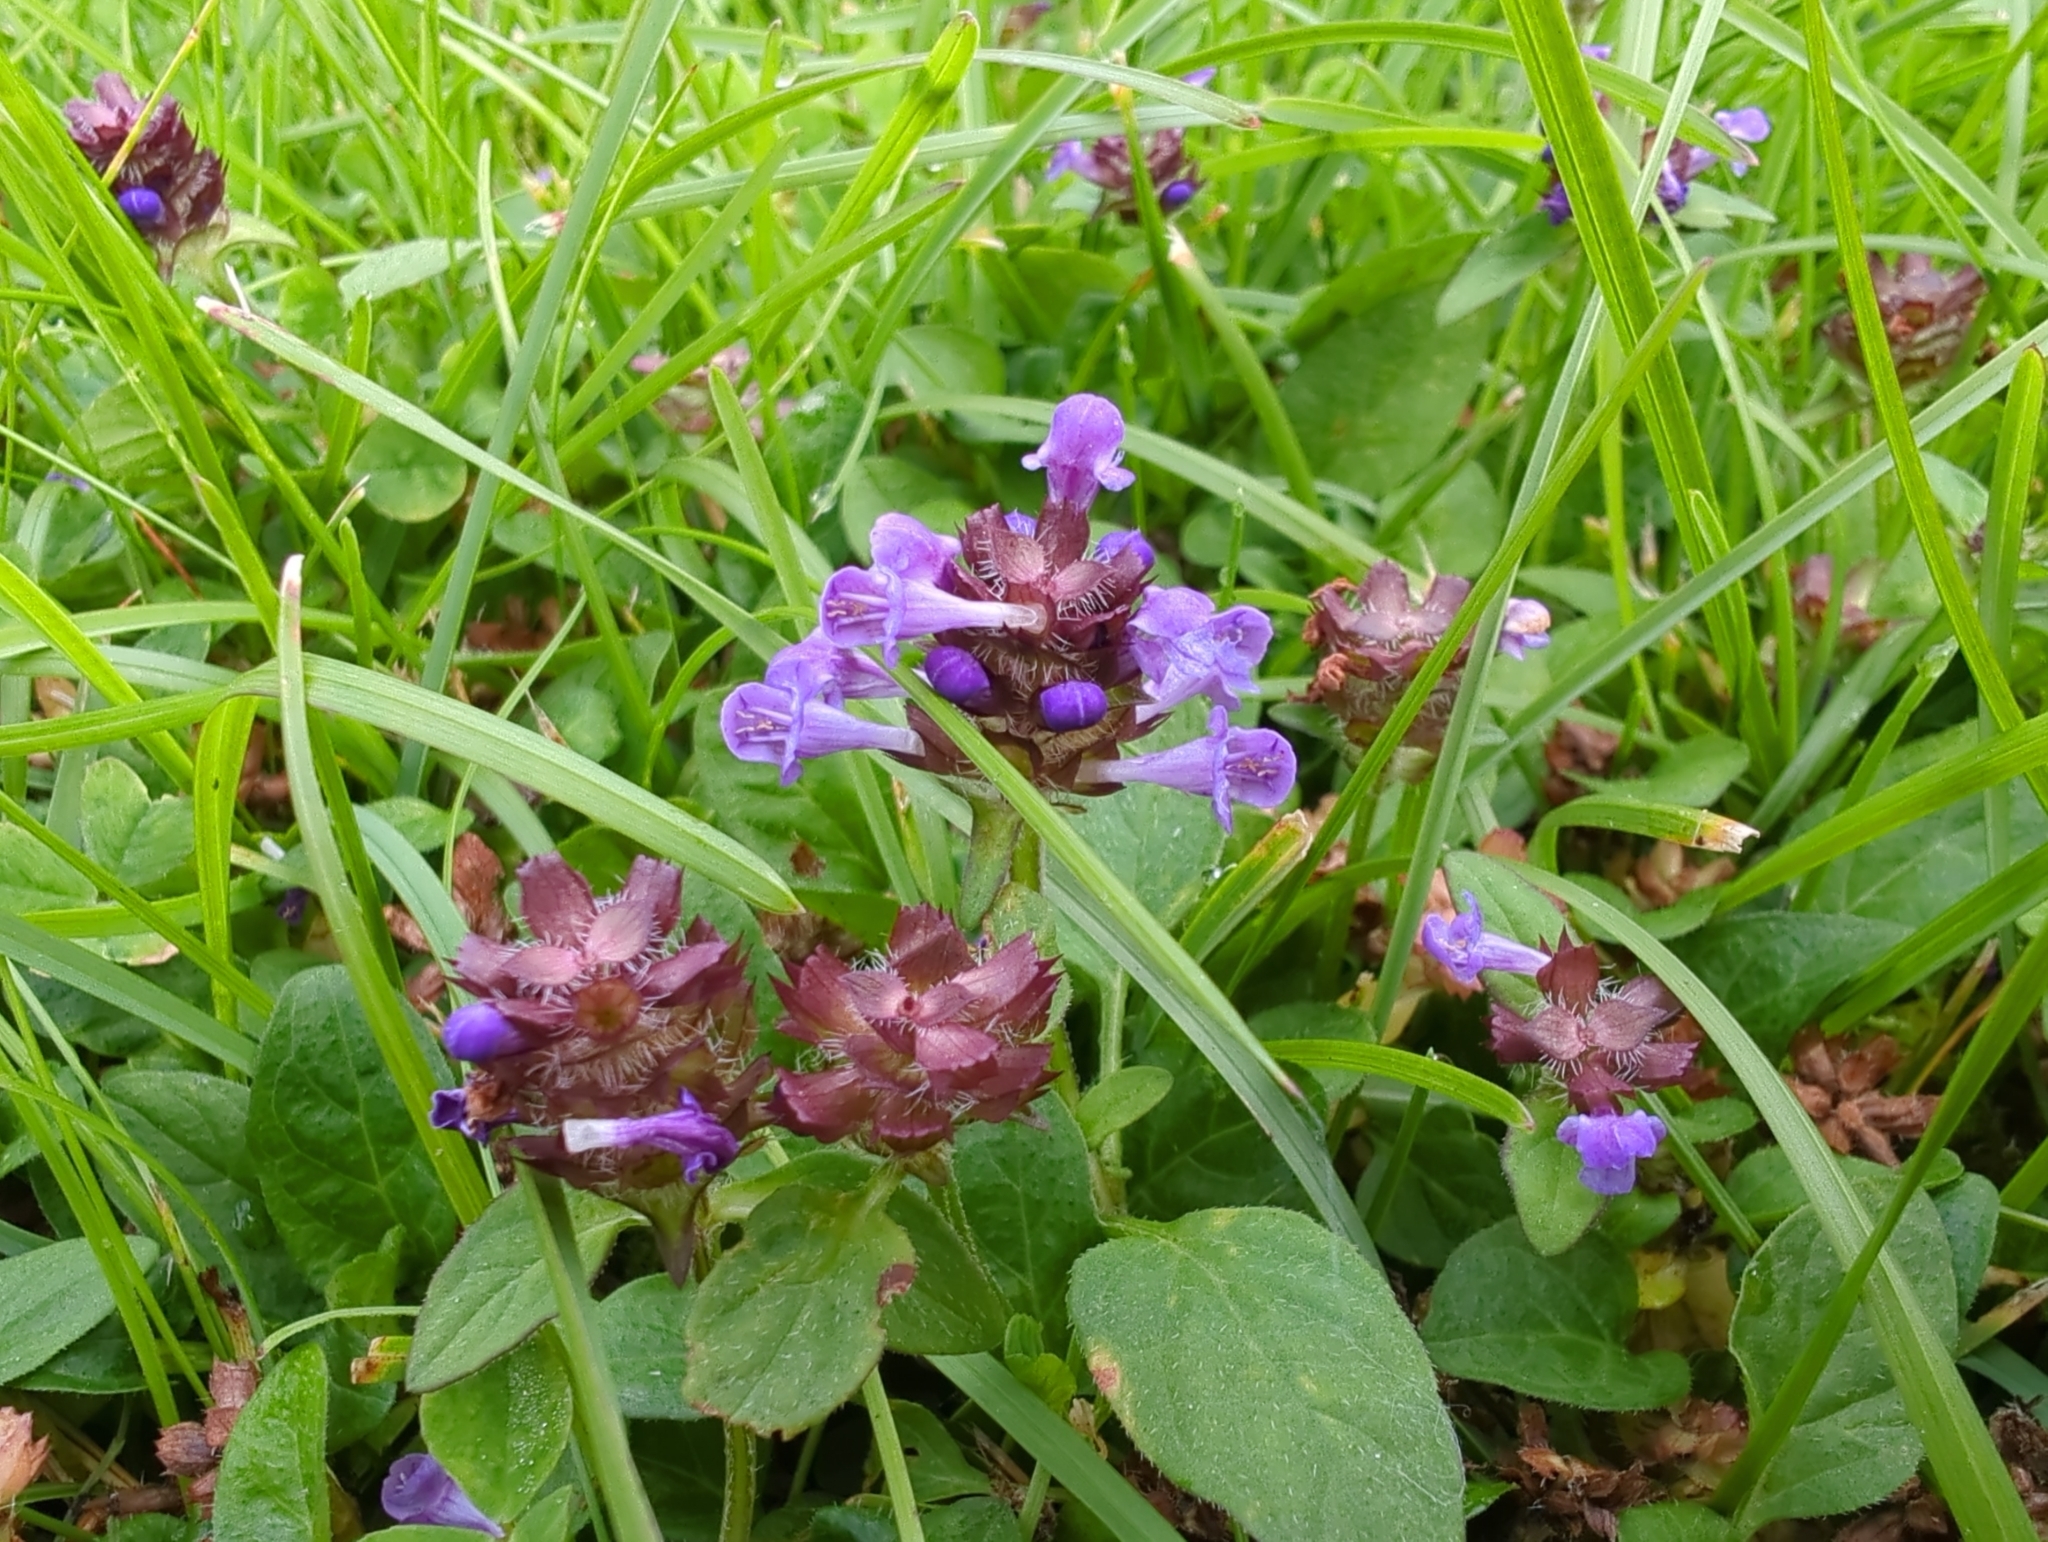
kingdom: Plantae
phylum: Tracheophyta
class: Magnoliopsida
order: Lamiales
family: Lamiaceae
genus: Prunella
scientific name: Prunella vulgaris
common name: Heal-all
